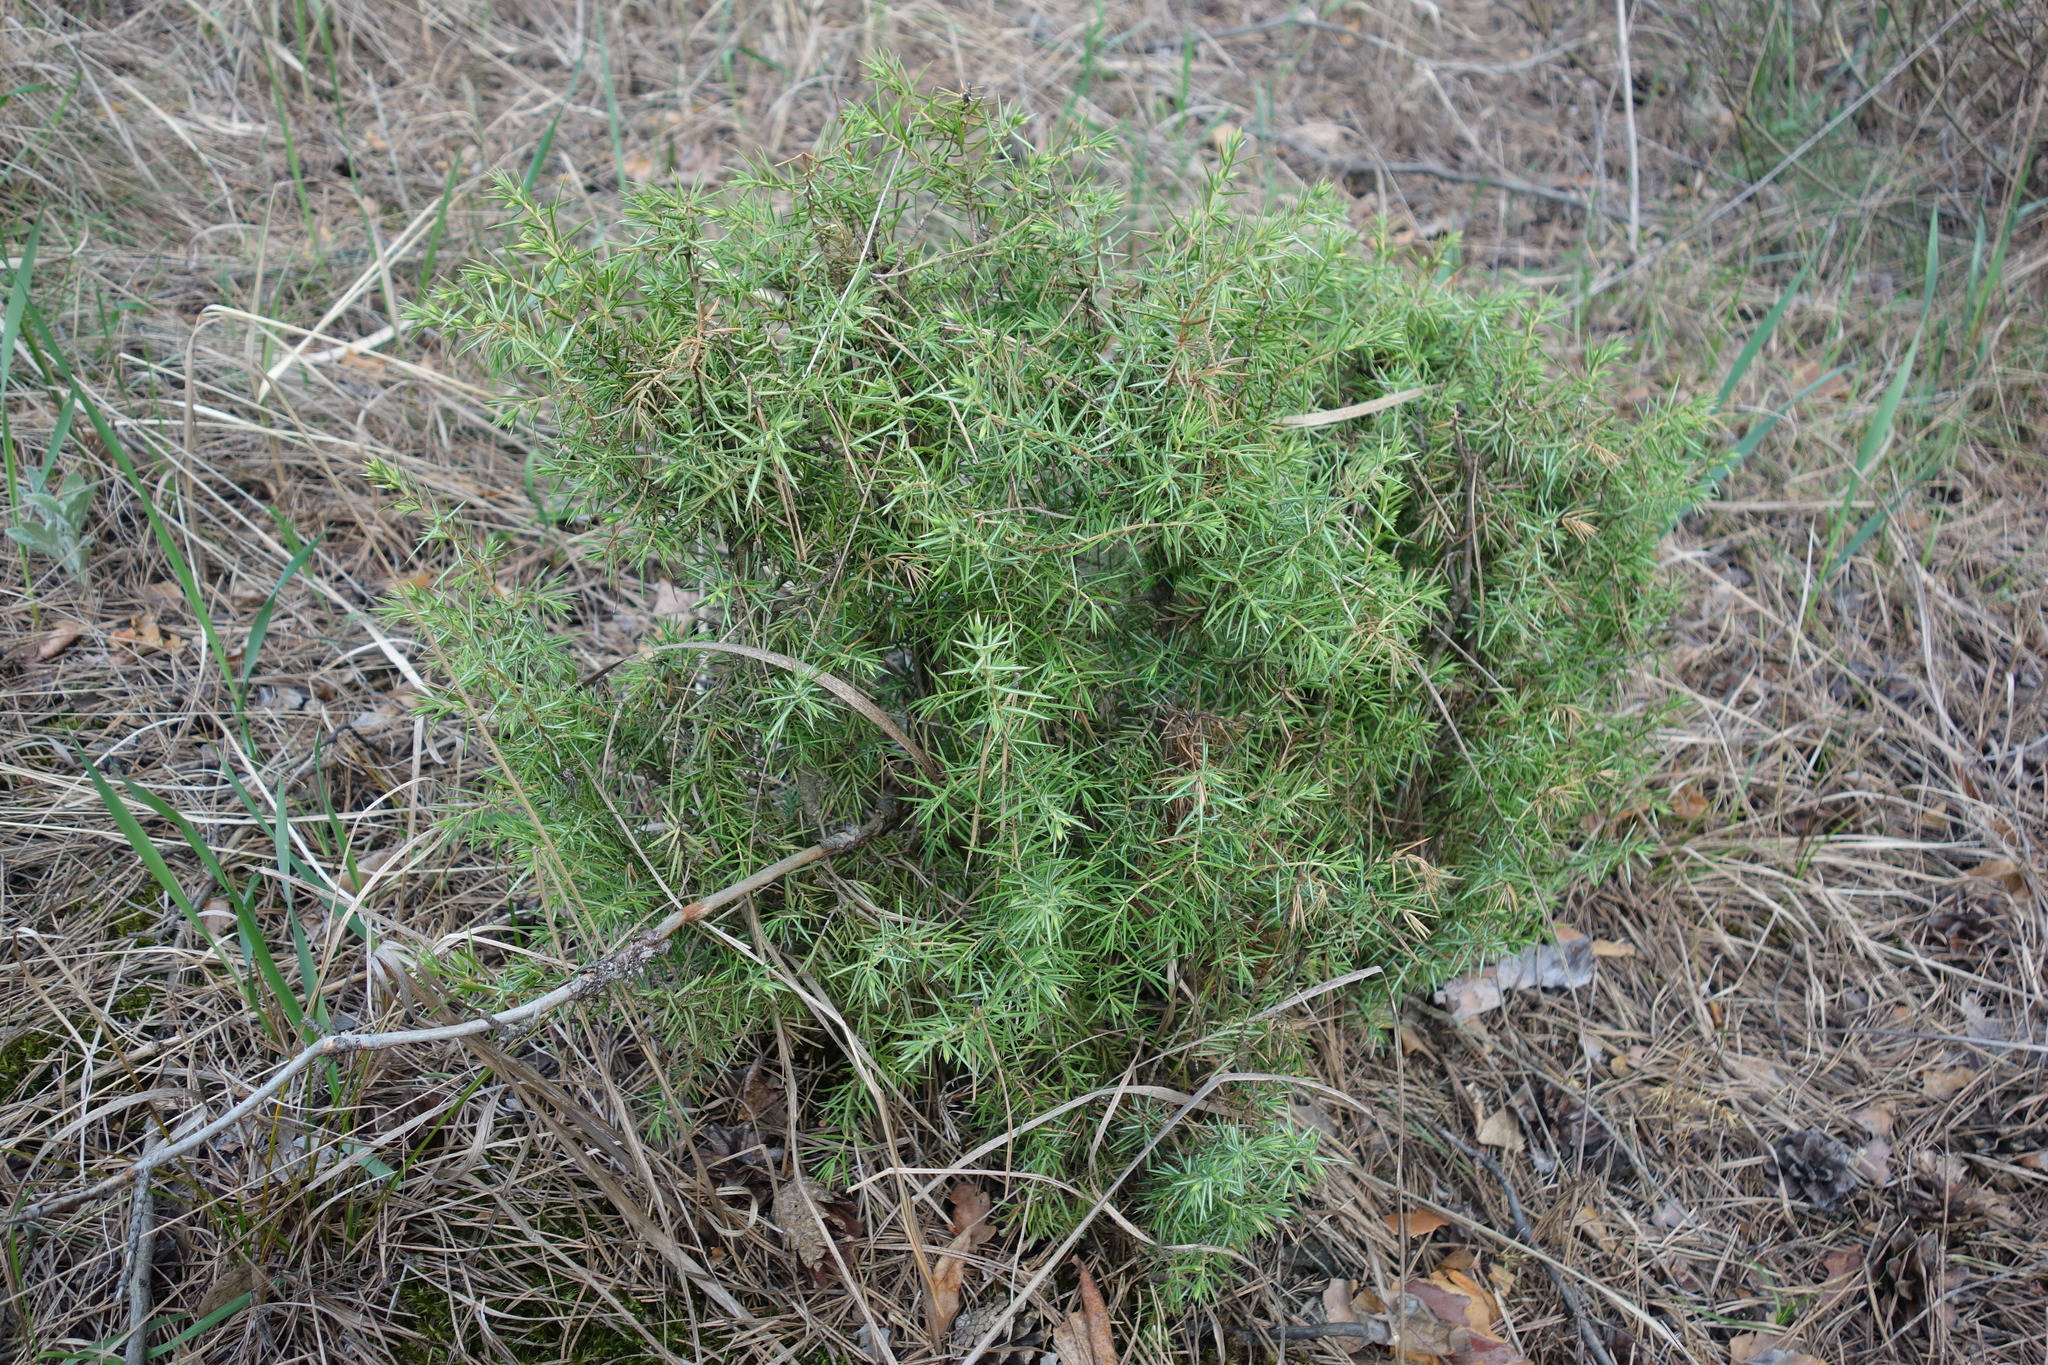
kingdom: Plantae
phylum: Tracheophyta
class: Pinopsida
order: Pinales
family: Cupressaceae
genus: Juniperus
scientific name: Juniperus communis
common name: Common juniper
